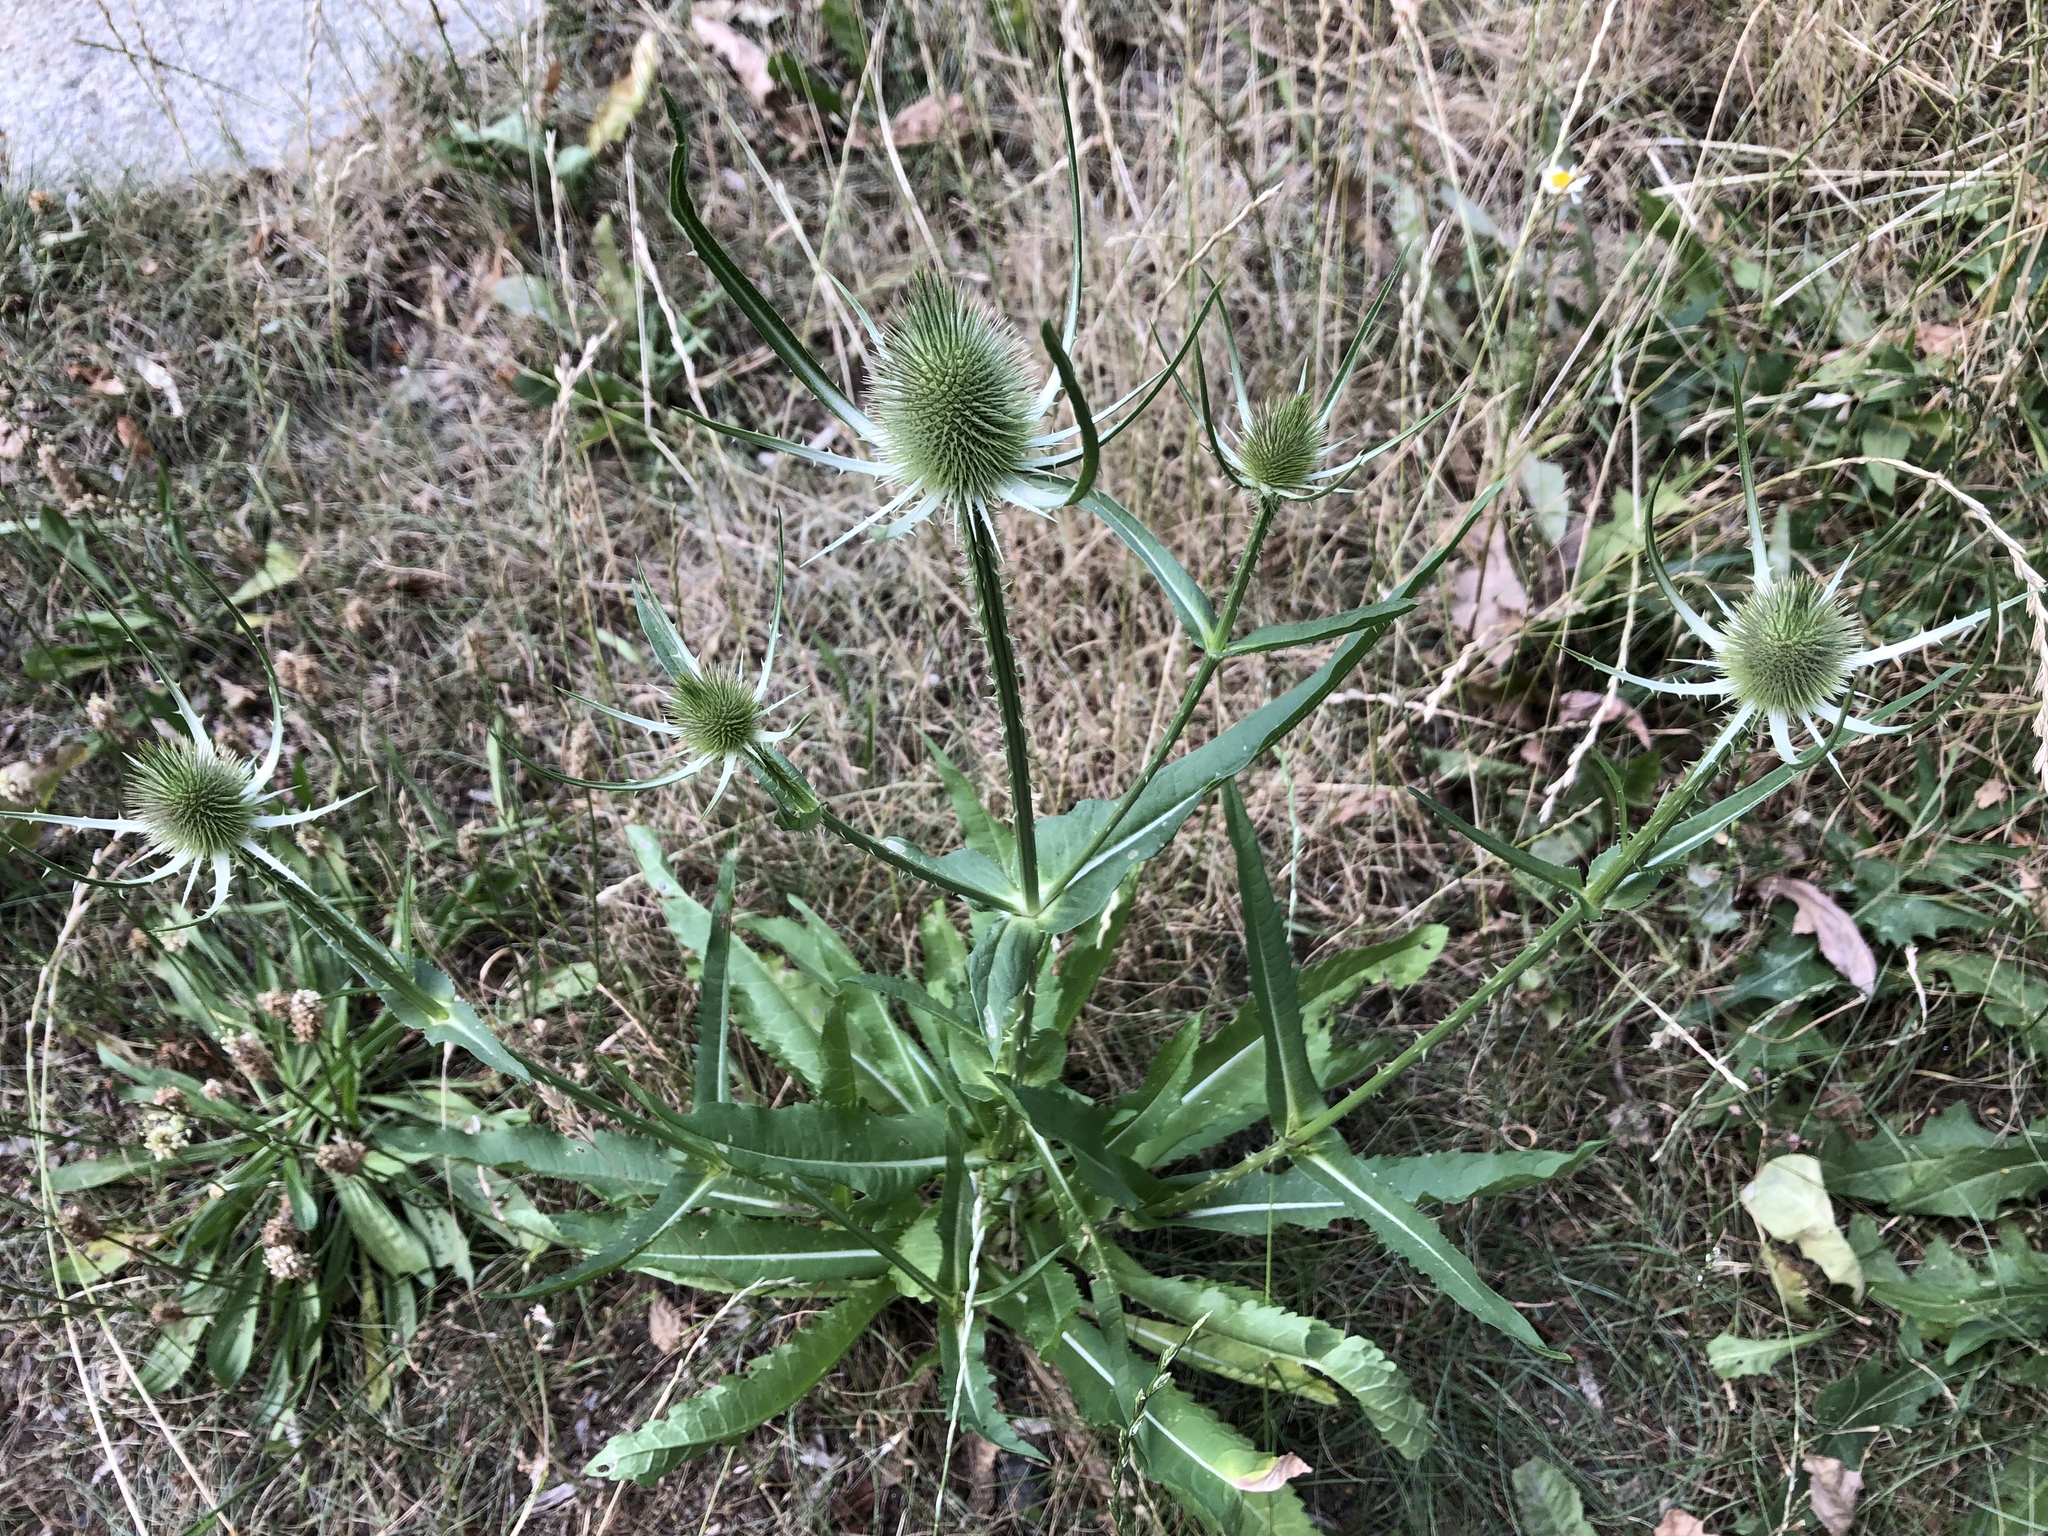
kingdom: Plantae
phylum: Tracheophyta
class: Magnoliopsida
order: Dipsacales
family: Caprifoliaceae
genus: Dipsacus
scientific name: Dipsacus fullonum
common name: Teasel
